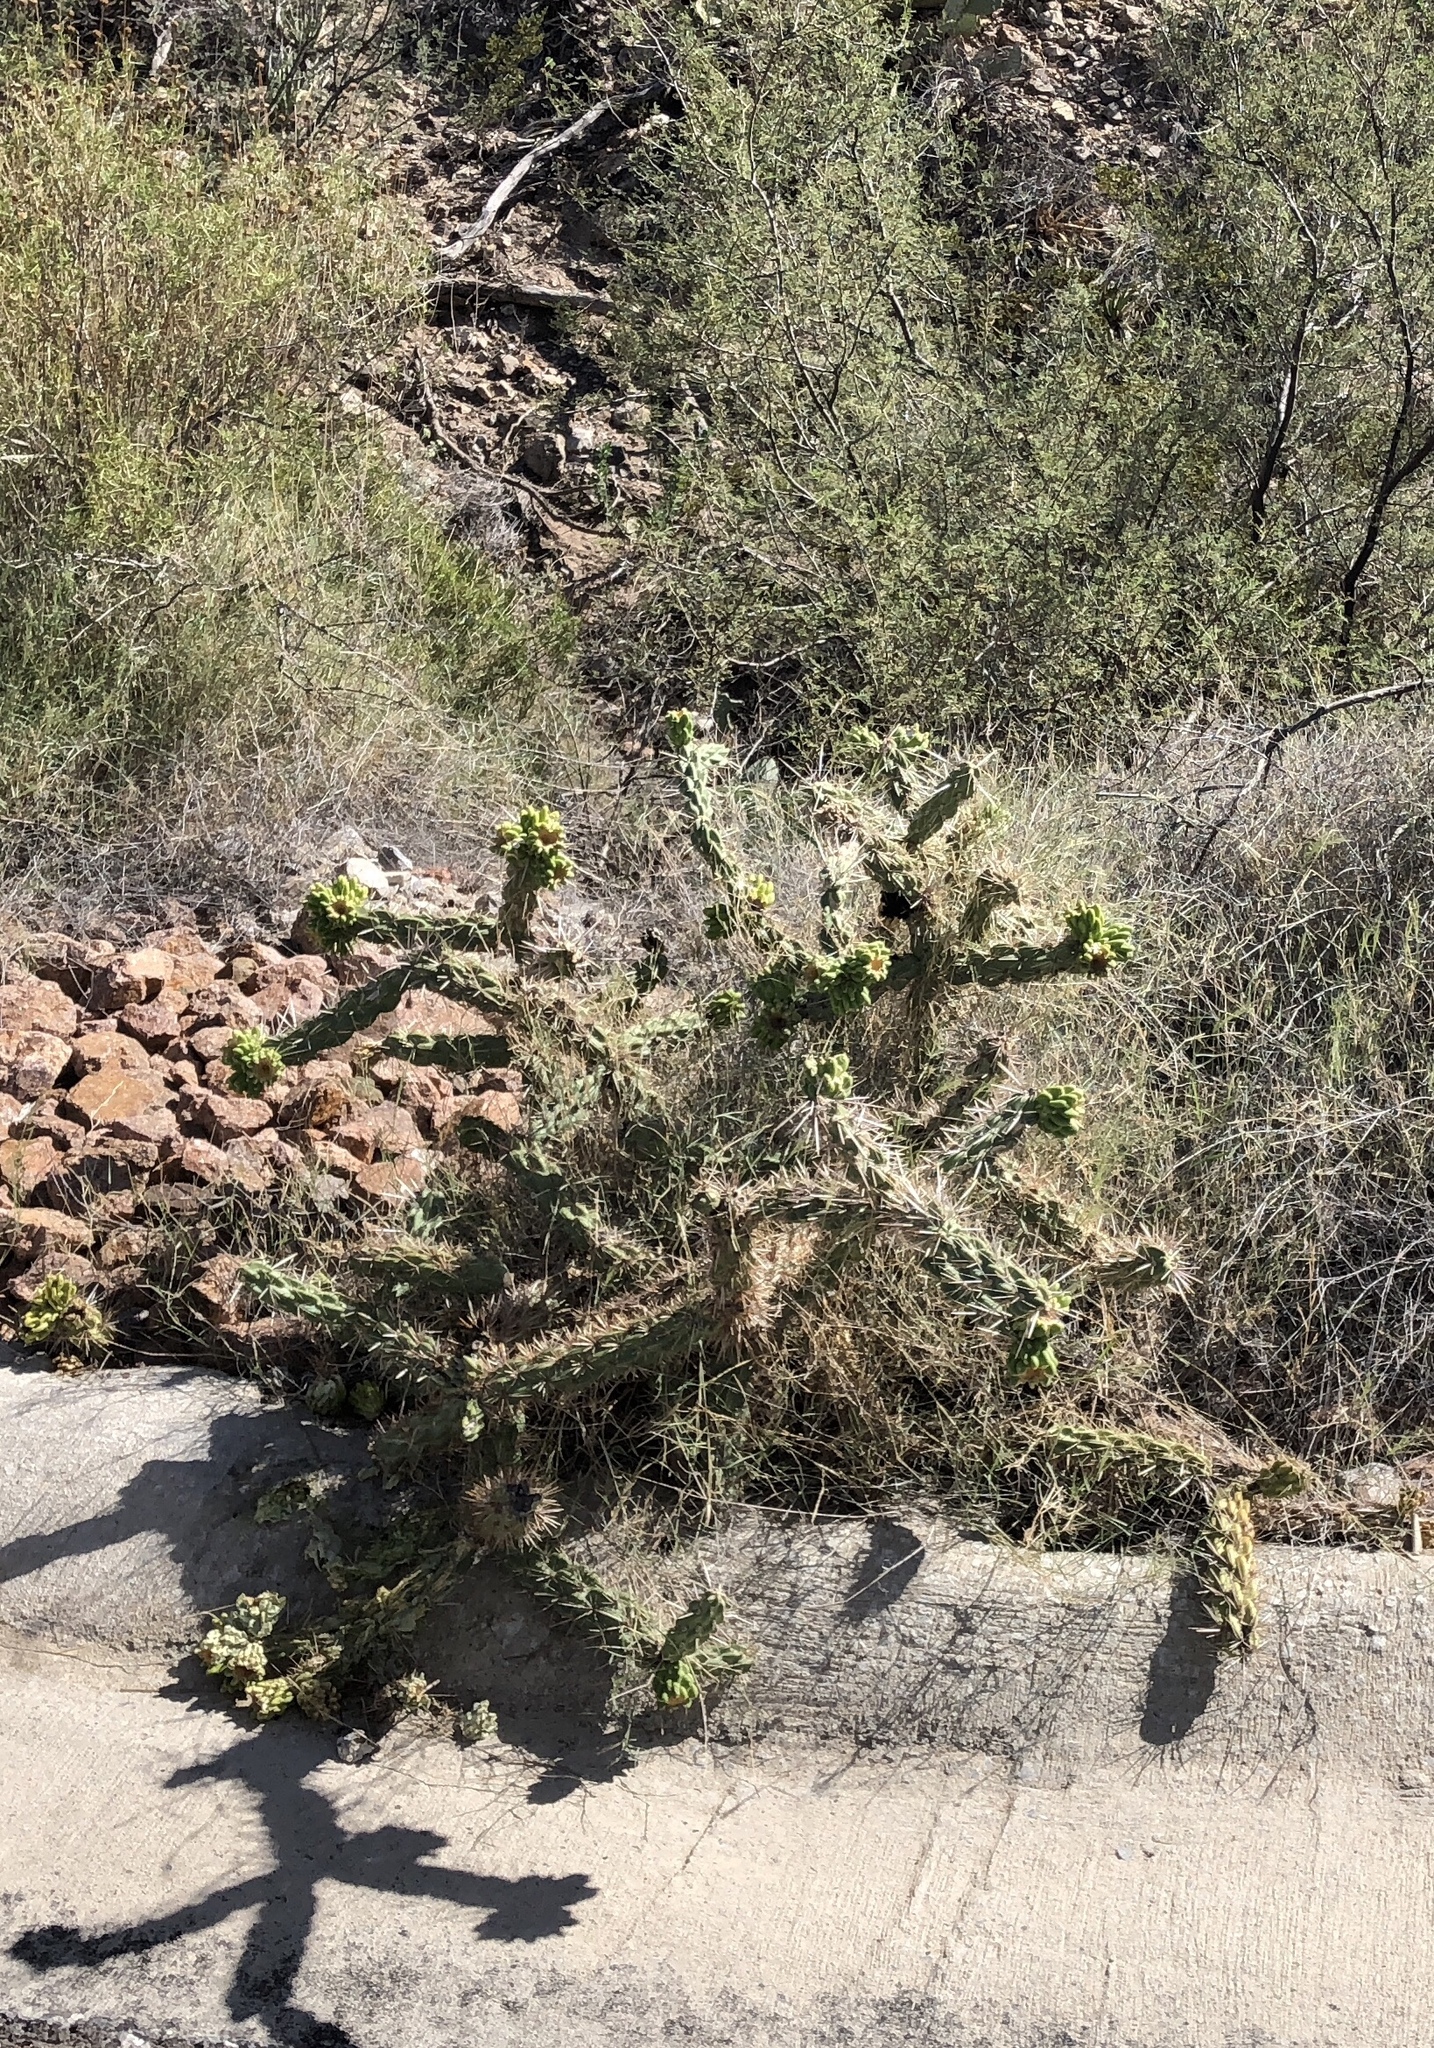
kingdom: Plantae
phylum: Tracheophyta
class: Magnoliopsida
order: Caryophyllales
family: Cactaceae
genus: Cylindropuntia
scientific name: Cylindropuntia imbricata
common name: Candelabrum cactus
